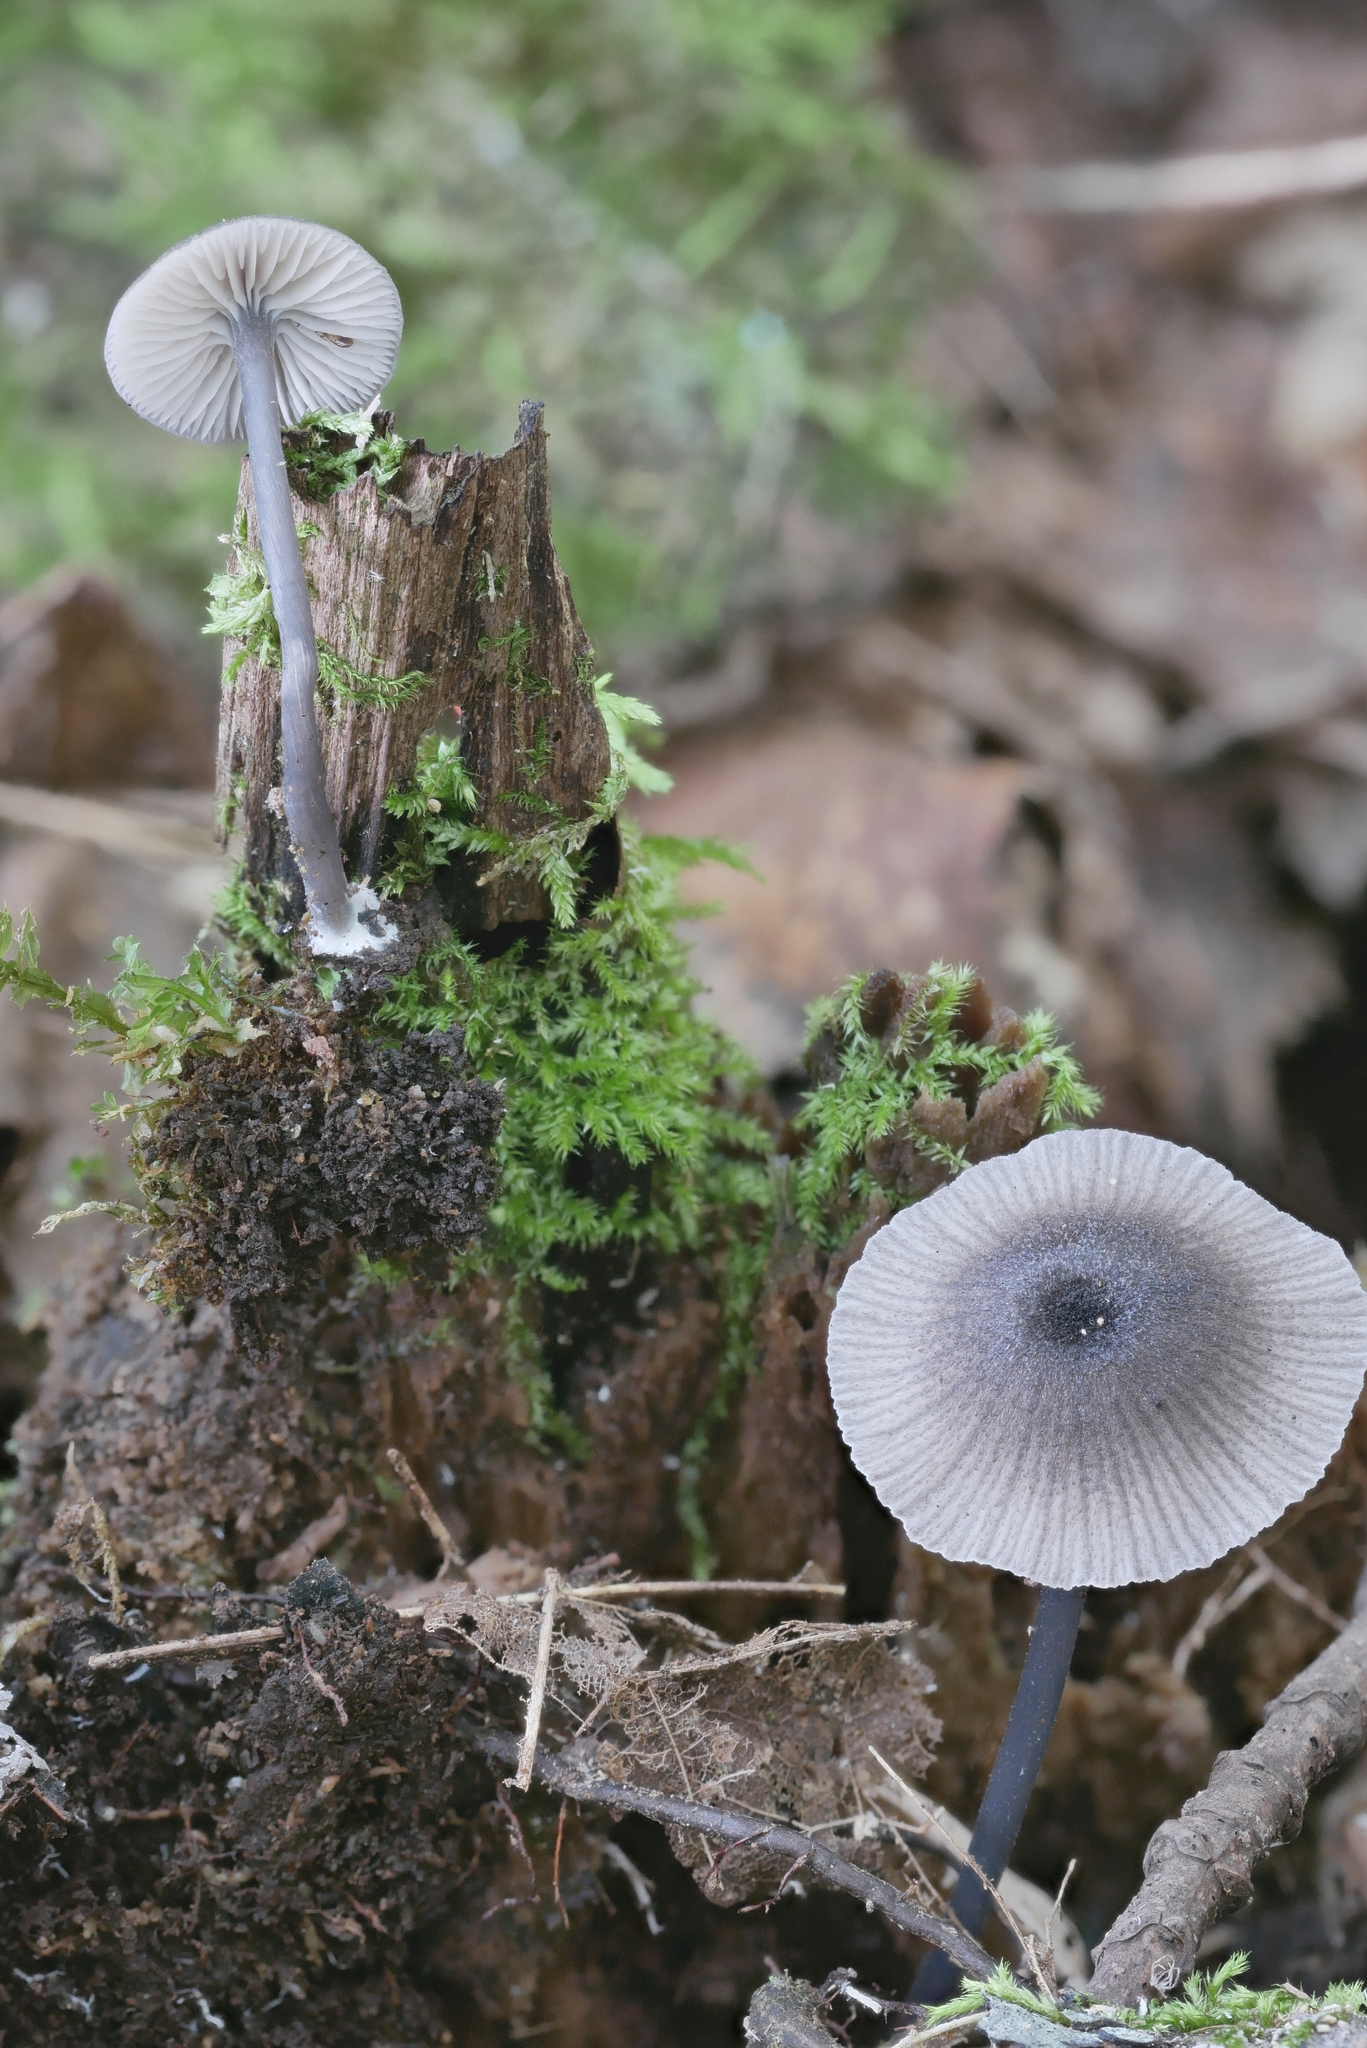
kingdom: Fungi
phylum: Basidiomycota
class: Agaricomycetes
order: Agaricales
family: Entolomataceae
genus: Entocybe
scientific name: Entocybe nitida
